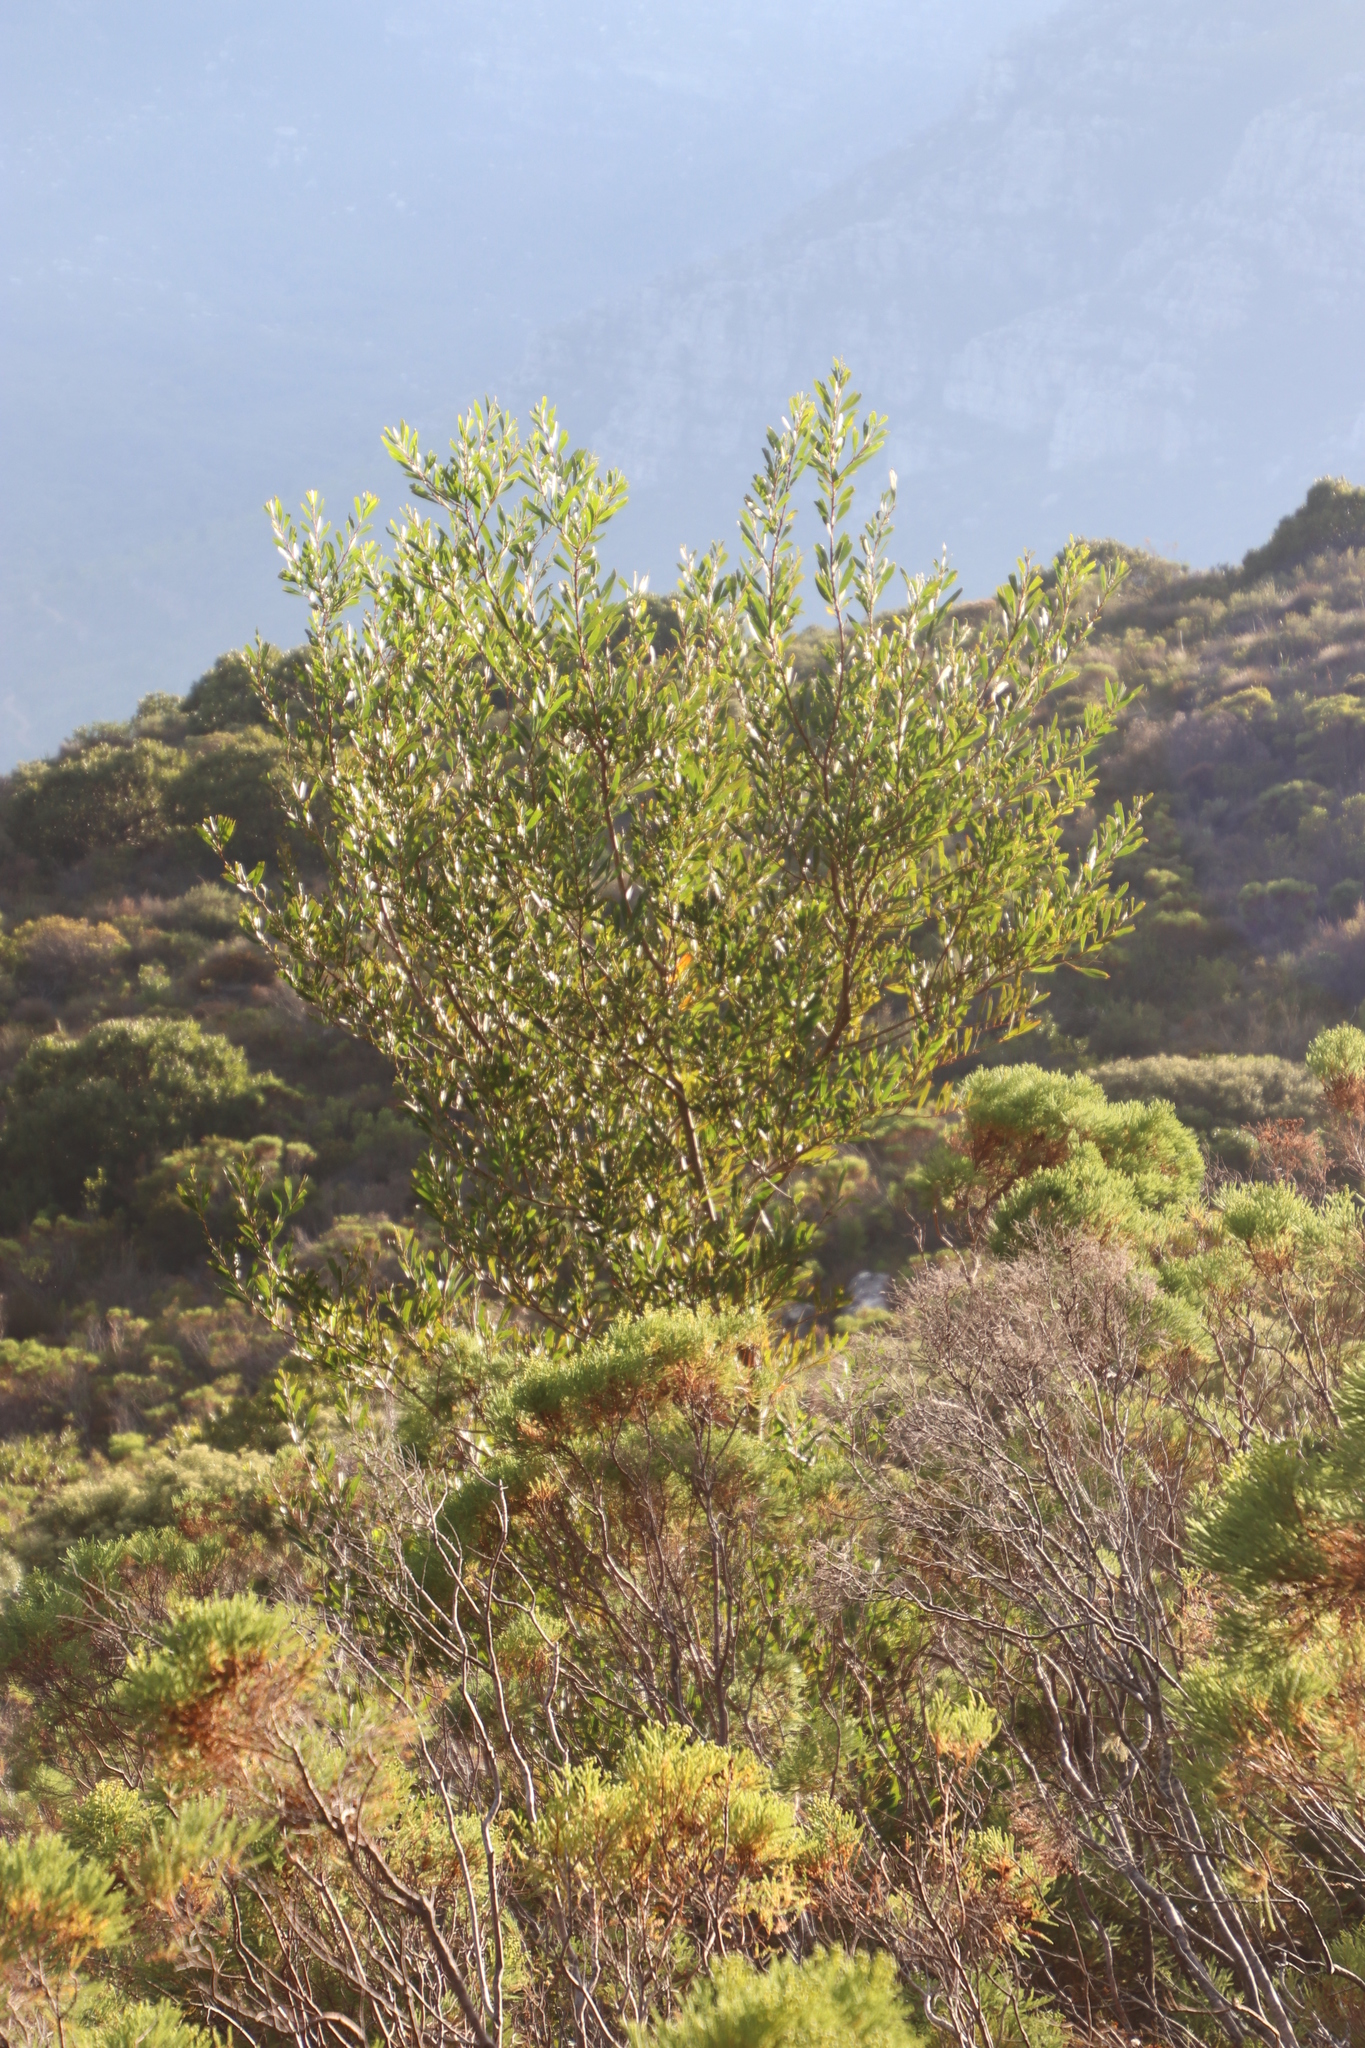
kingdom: Plantae
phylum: Tracheophyta
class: Magnoliopsida
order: Fabales
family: Fabaceae
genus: Acacia
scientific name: Acacia longifolia
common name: Sydney golden wattle
